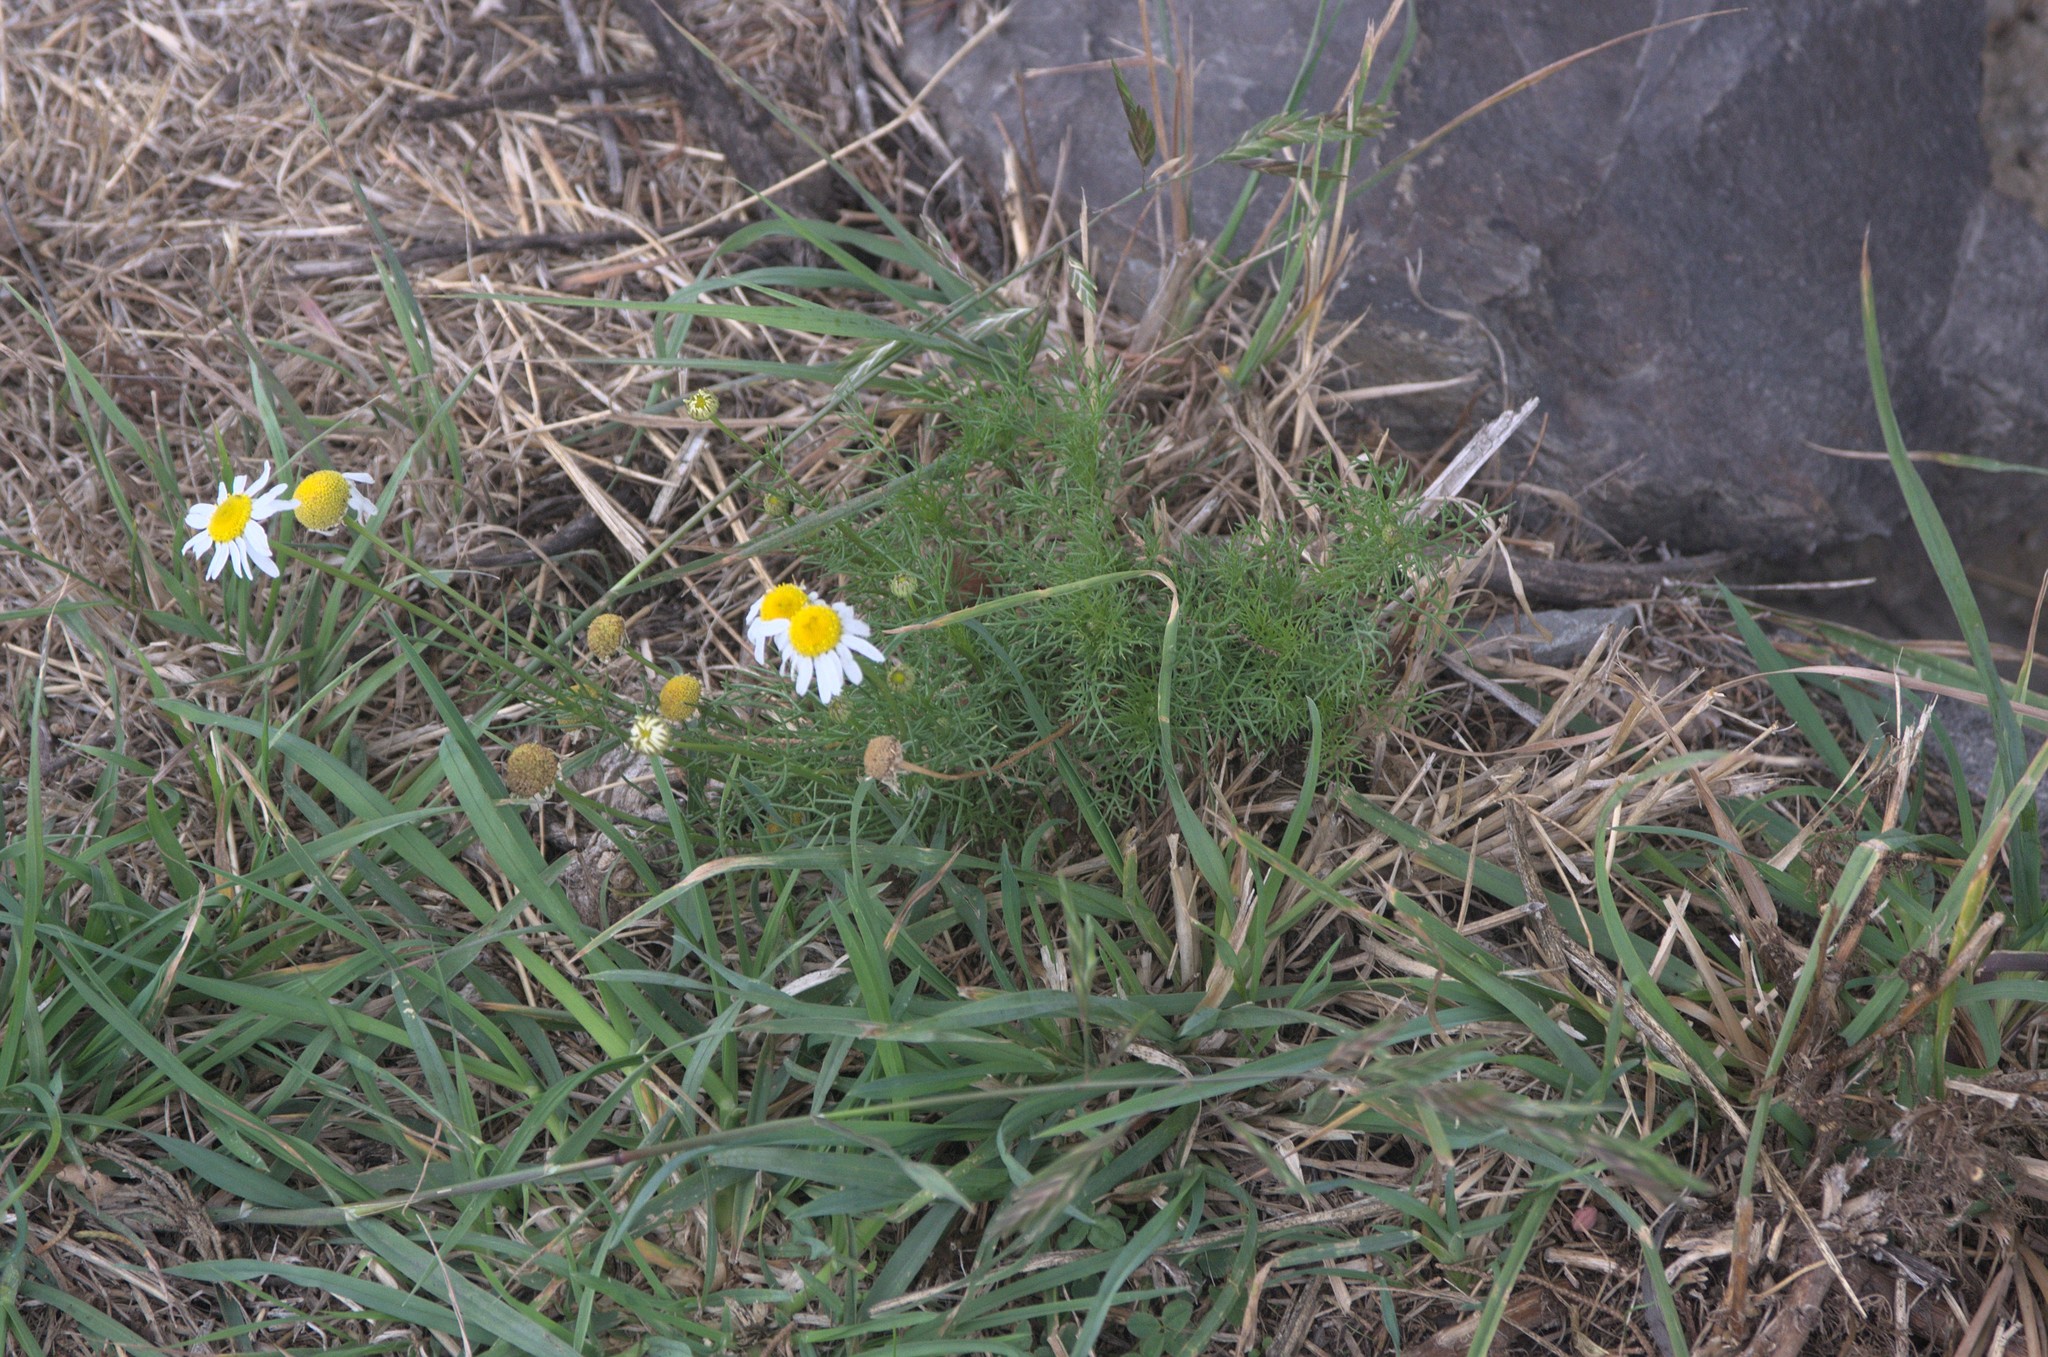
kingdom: Plantae
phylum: Tracheophyta
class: Magnoliopsida
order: Asterales
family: Asteraceae
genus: Tripleurospermum
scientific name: Tripleurospermum inodorum
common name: Scentless mayweed
